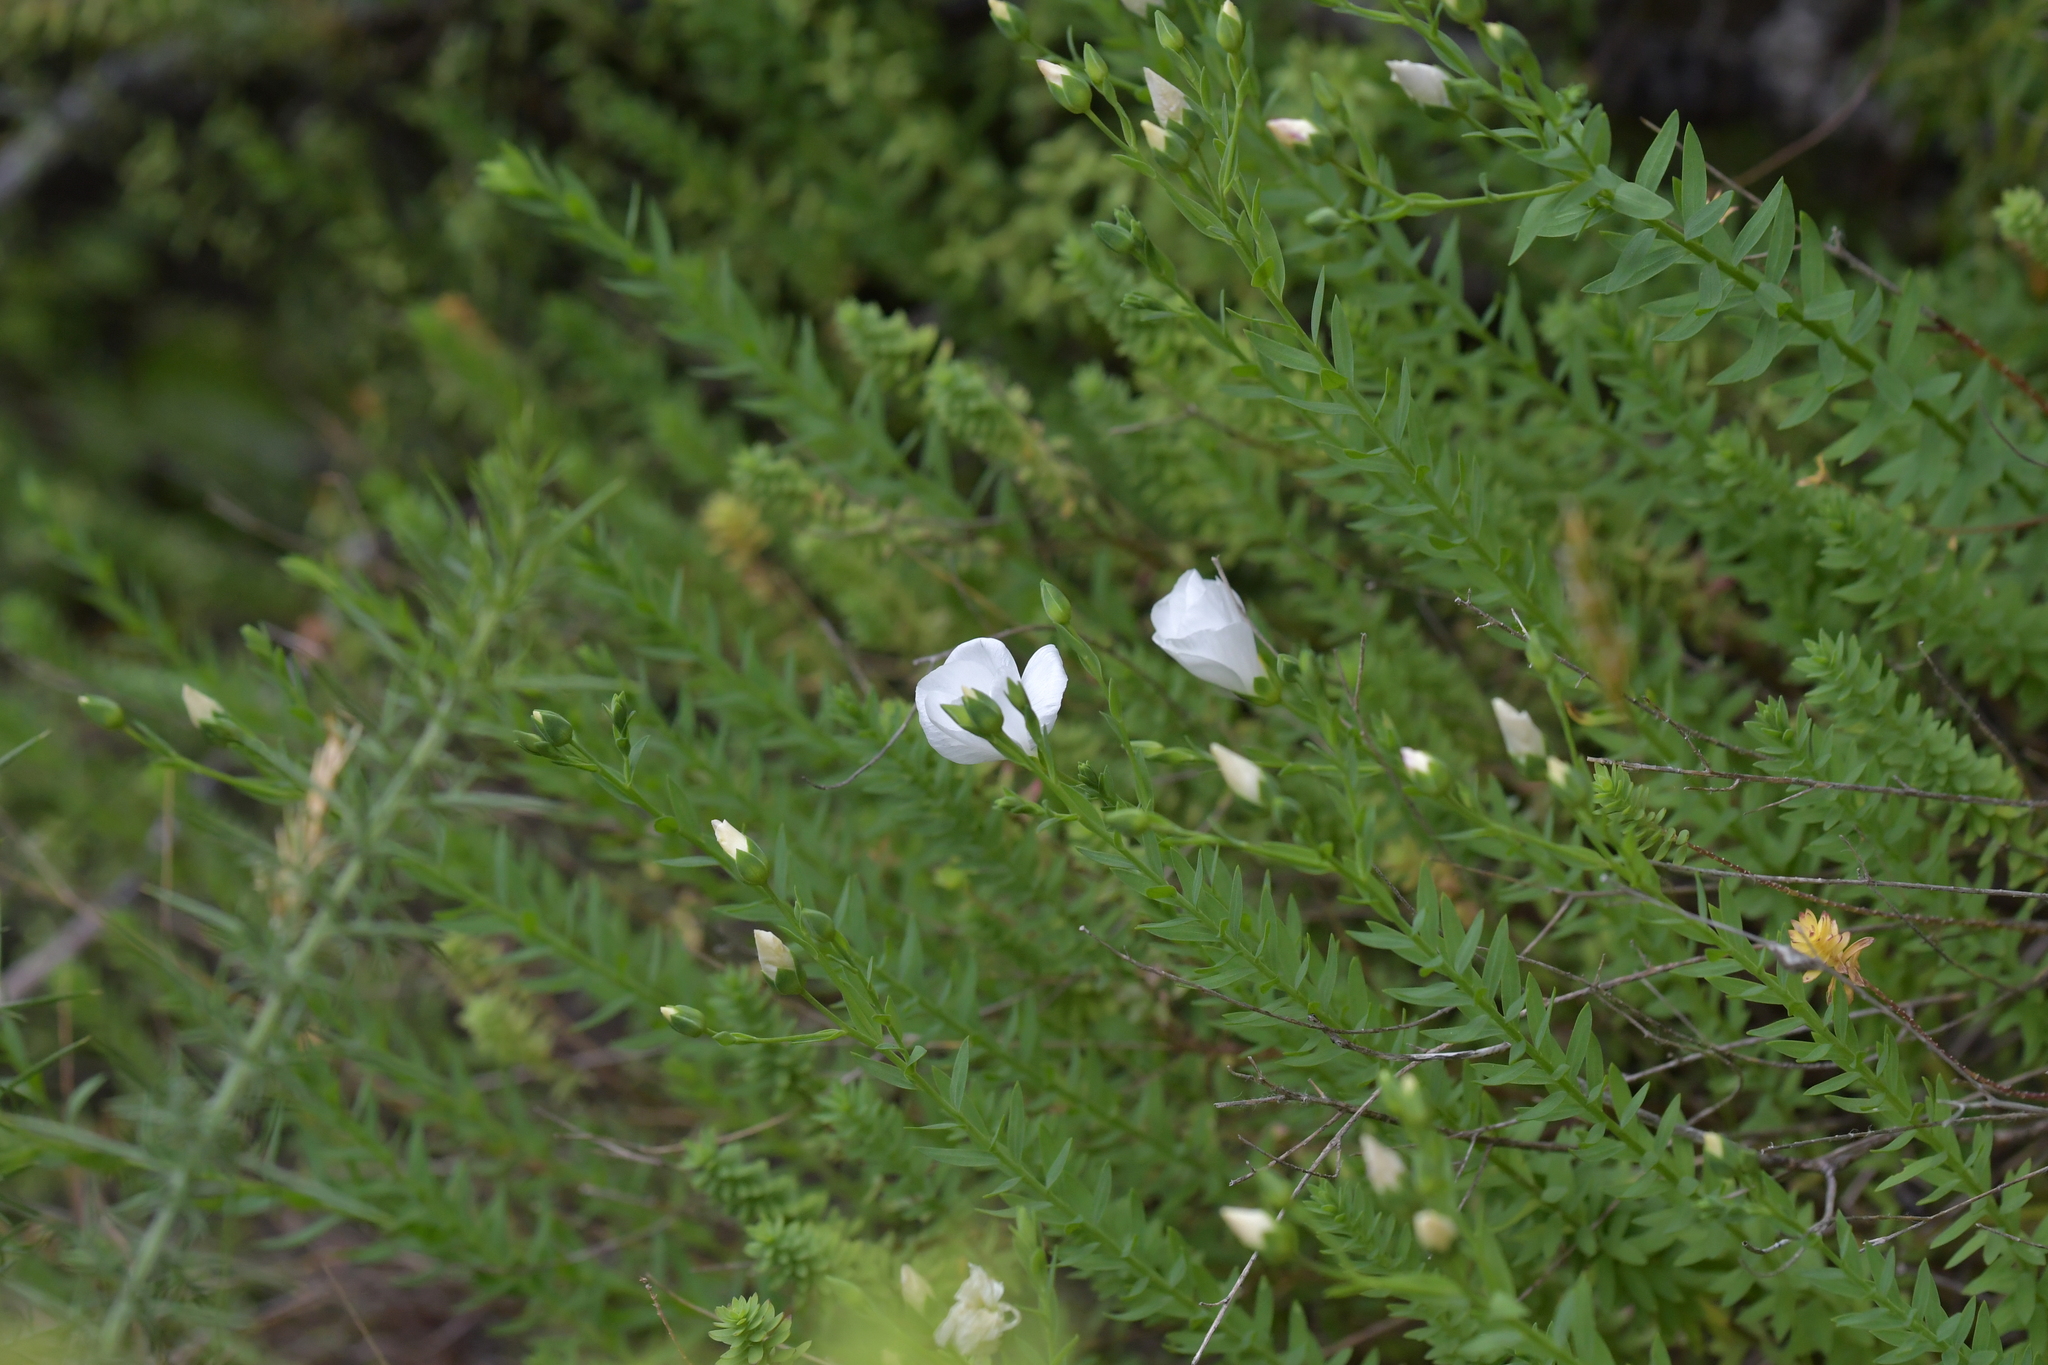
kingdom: Plantae
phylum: Tracheophyta
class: Magnoliopsida
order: Malpighiales
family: Linaceae
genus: Linum
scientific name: Linum monogynum
